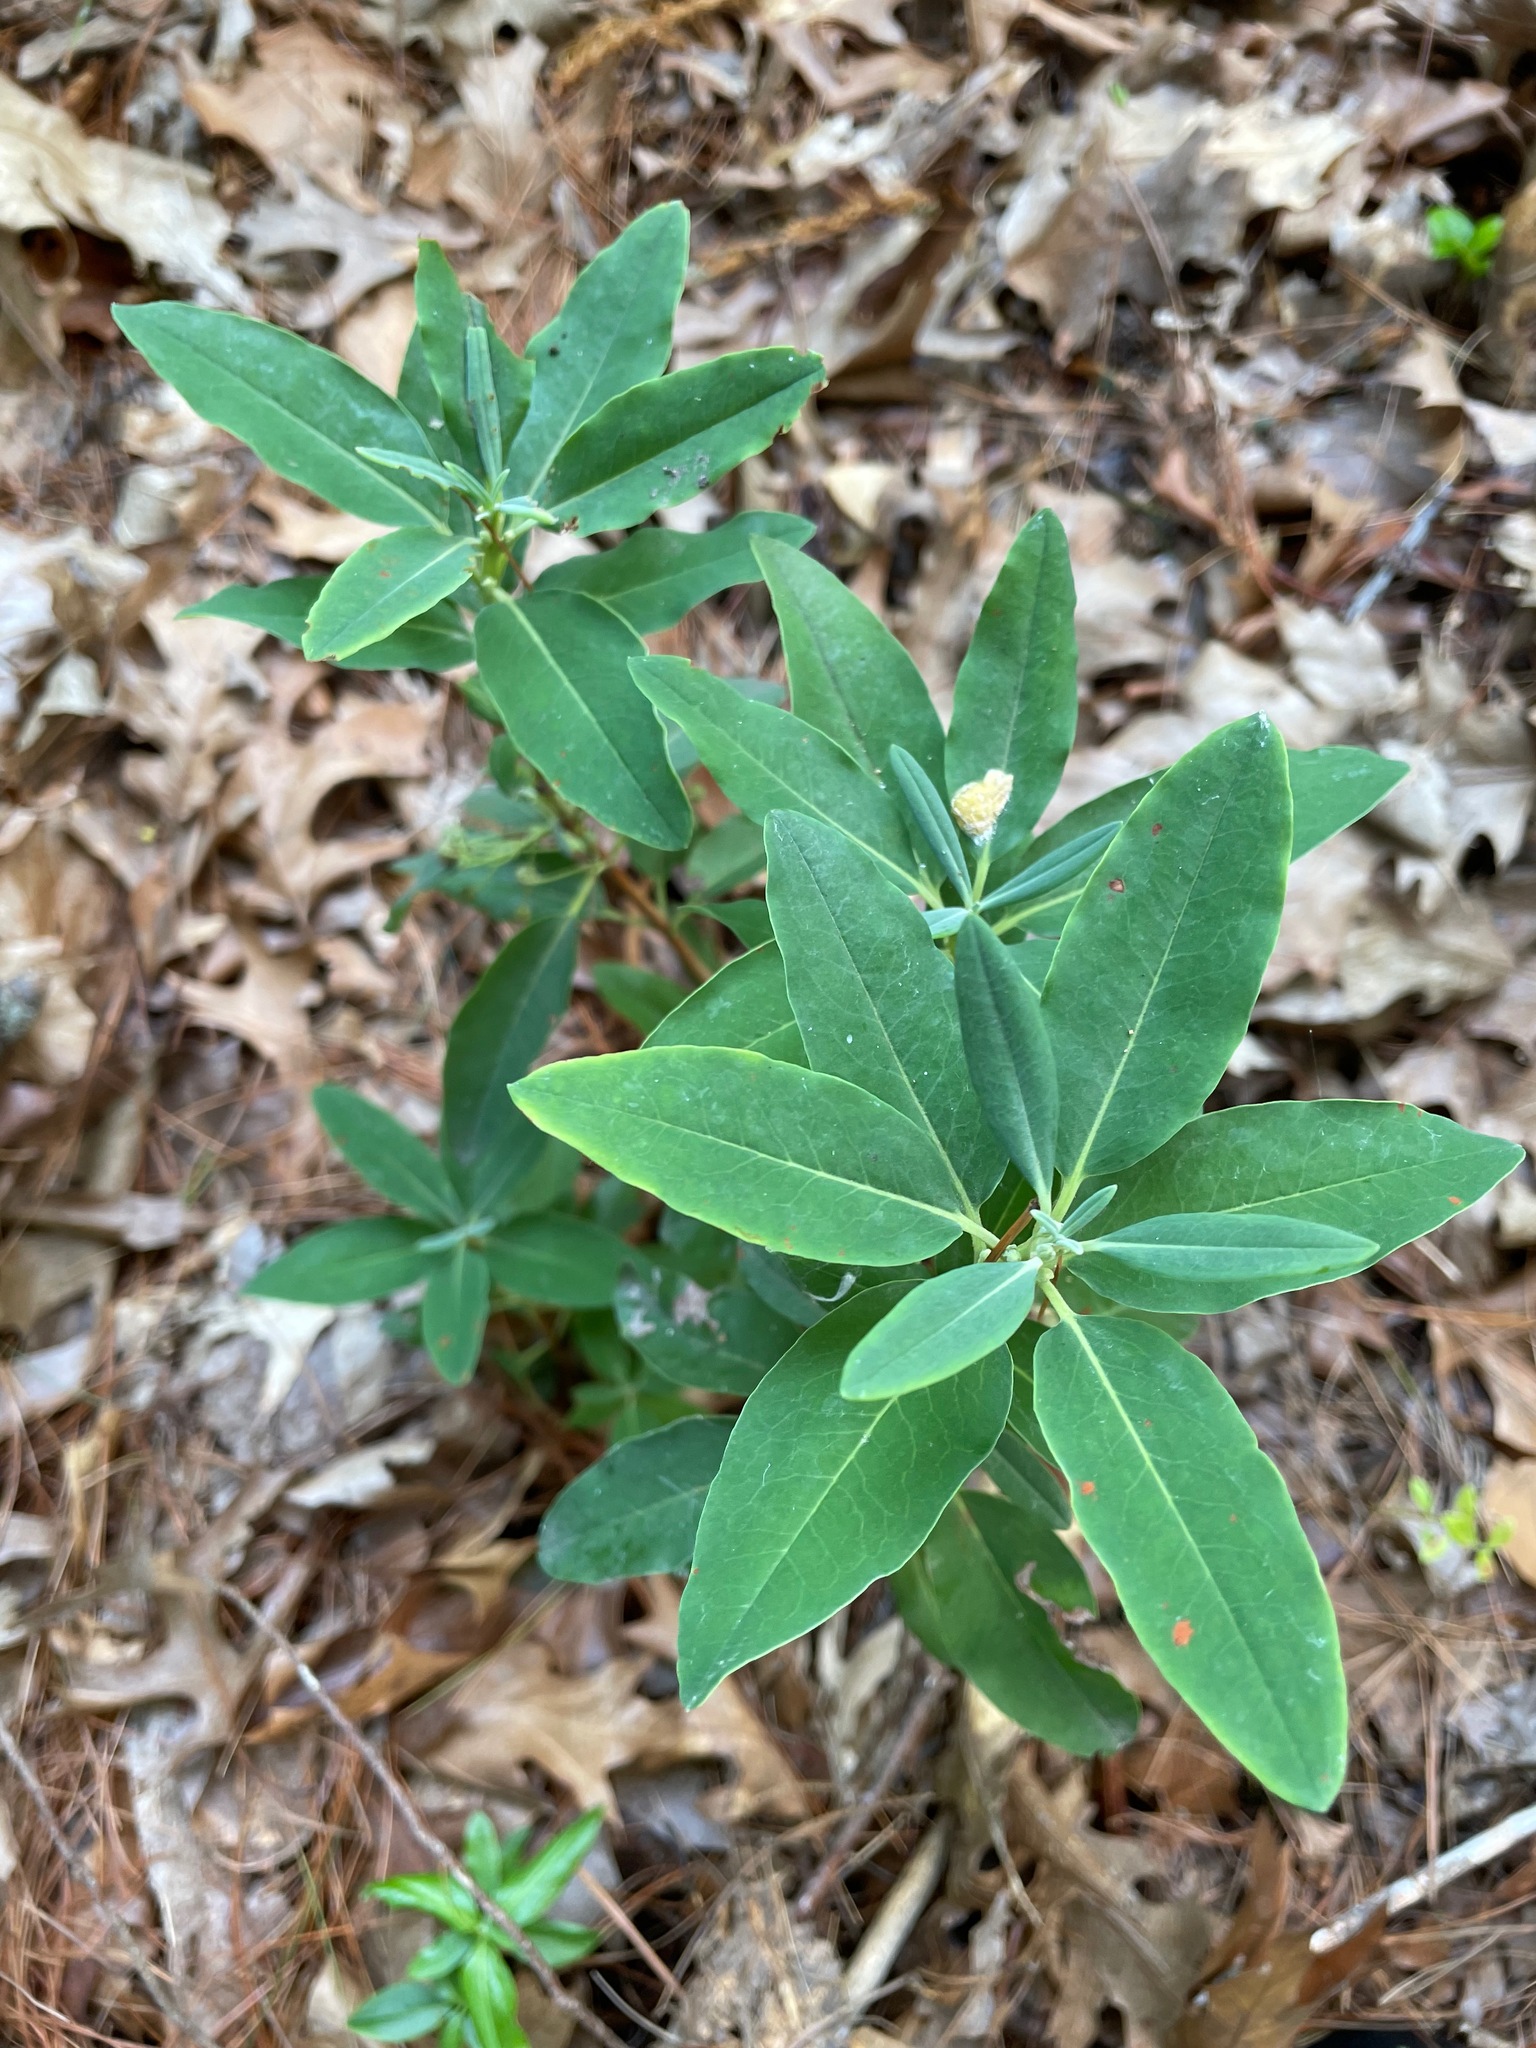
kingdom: Plantae
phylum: Tracheophyta
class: Magnoliopsida
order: Ericales
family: Ericaceae
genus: Kalmia
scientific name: Kalmia angustifolia
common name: Sheep-laurel
